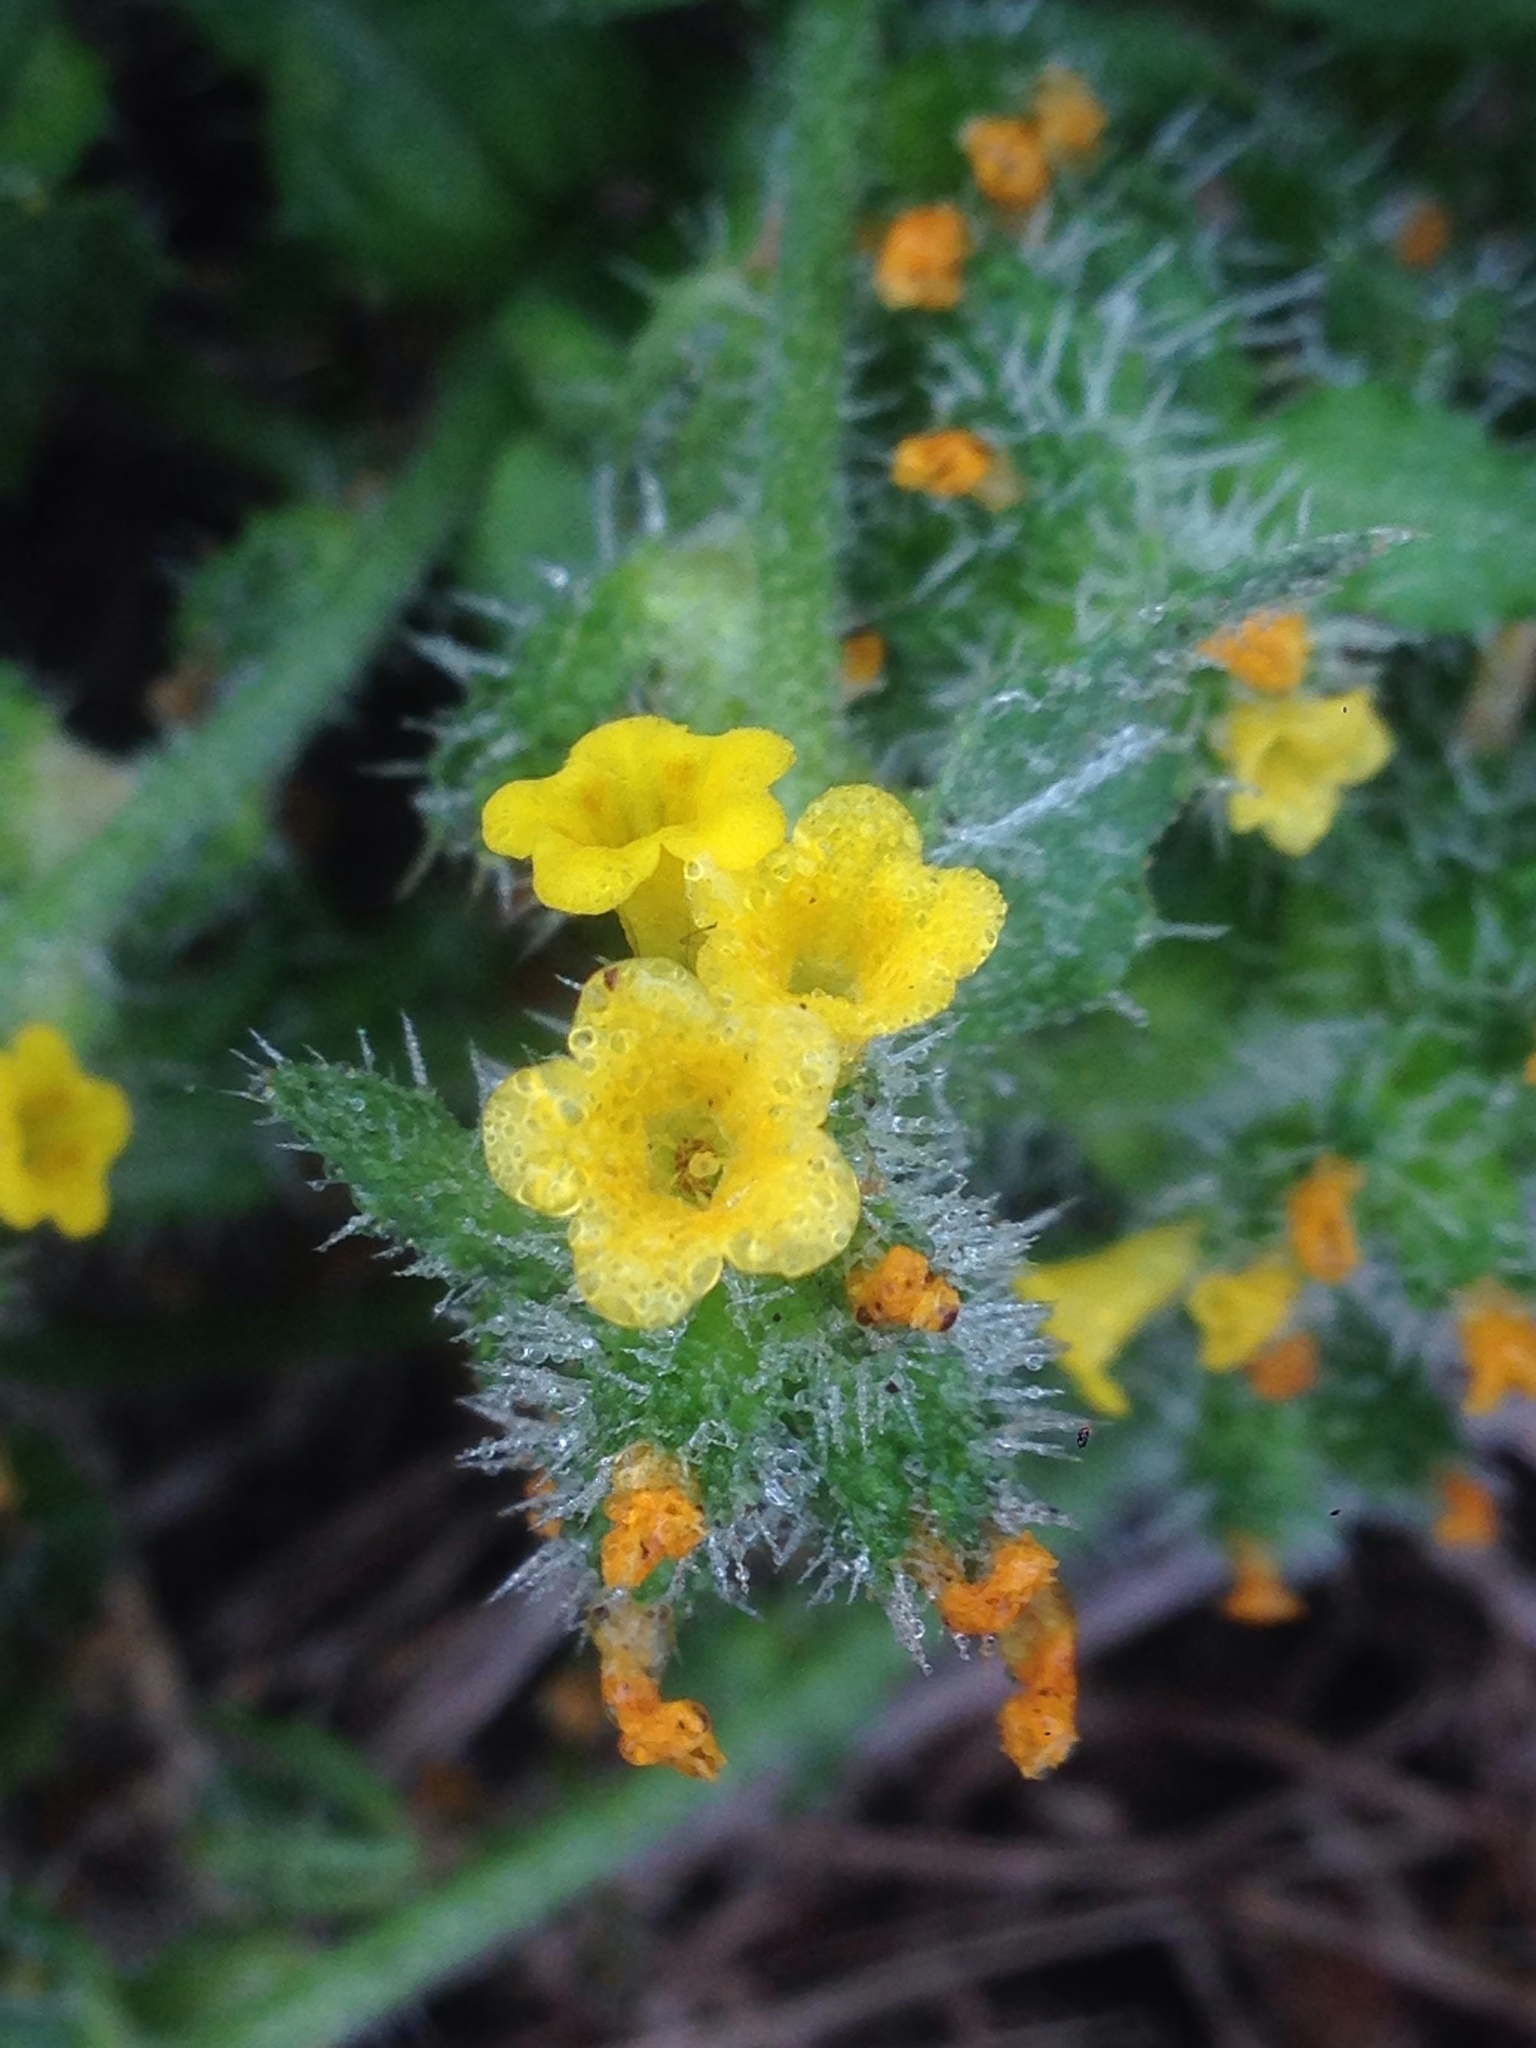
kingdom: Plantae
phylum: Tracheophyta
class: Magnoliopsida
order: Boraginales
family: Boraginaceae
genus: Amsinckia
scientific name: Amsinckia spectabilis
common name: Seaside fiddleneck
